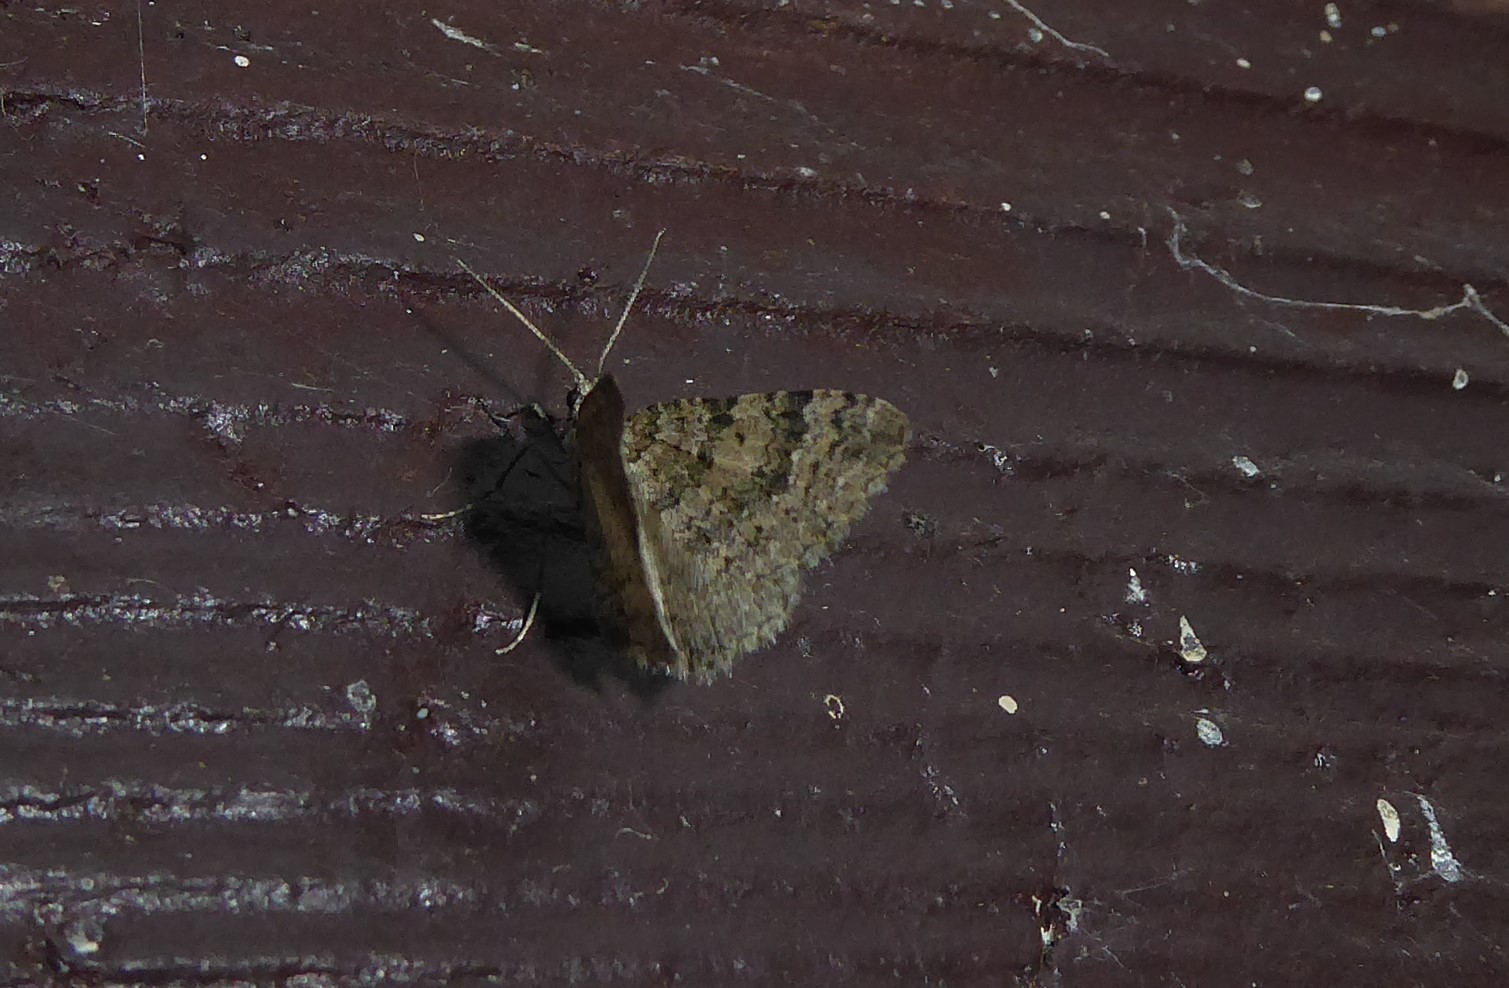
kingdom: Animalia
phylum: Arthropoda
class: Insecta
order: Lepidoptera
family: Geometridae
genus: Helastia
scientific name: Helastia corcularia
